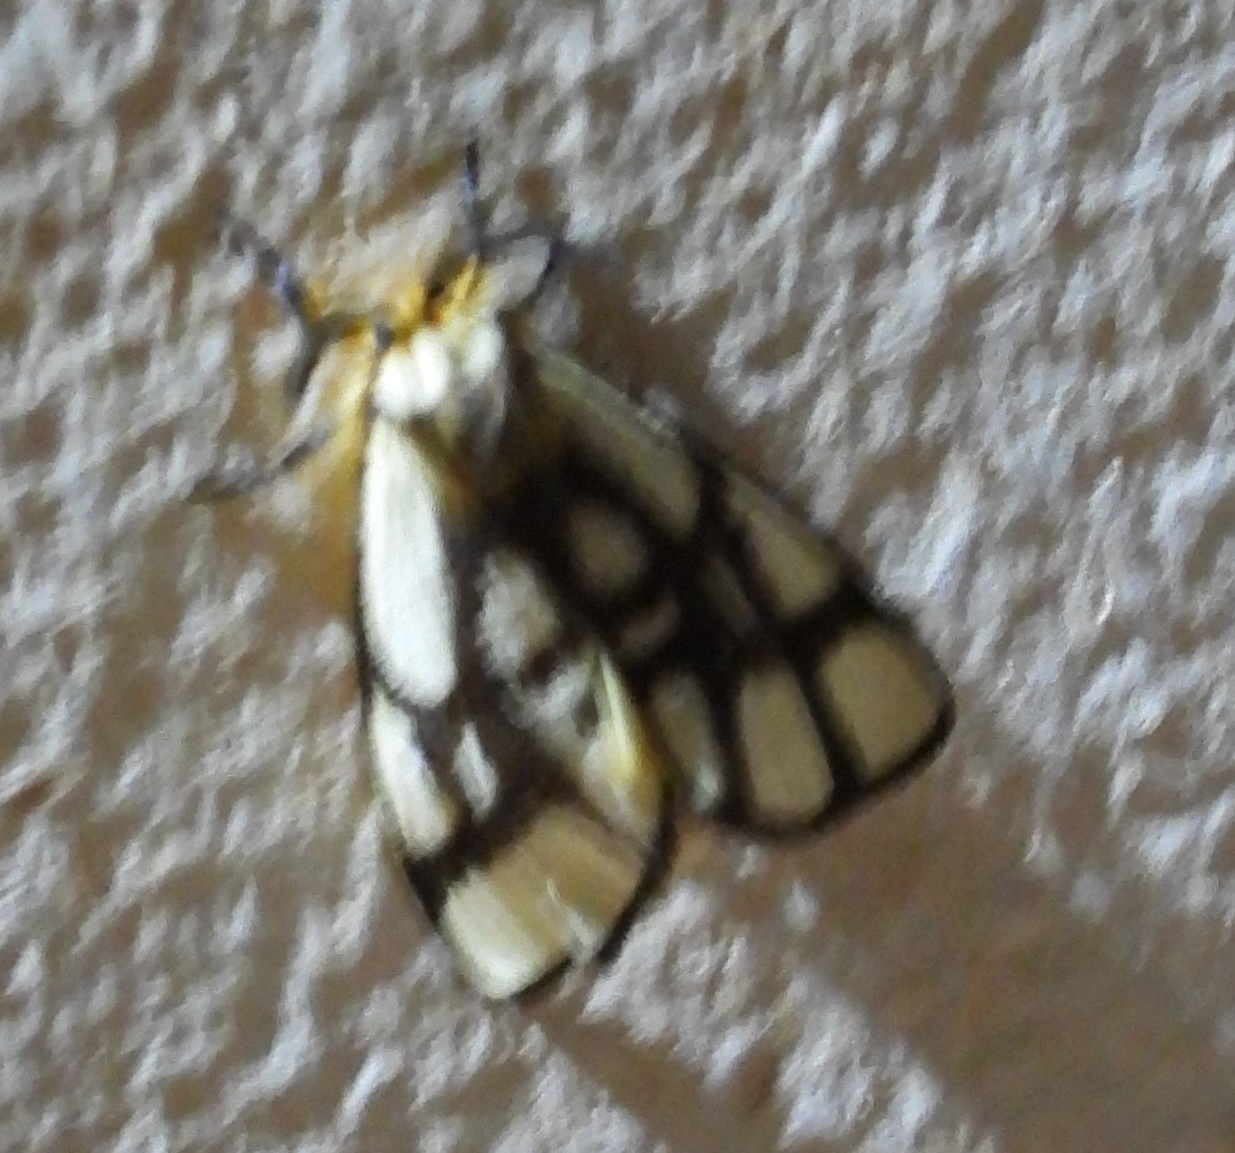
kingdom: Animalia
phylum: Arthropoda
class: Insecta
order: Lepidoptera
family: Notodontidae
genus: Anaphe
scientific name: Anaphe reticulata
